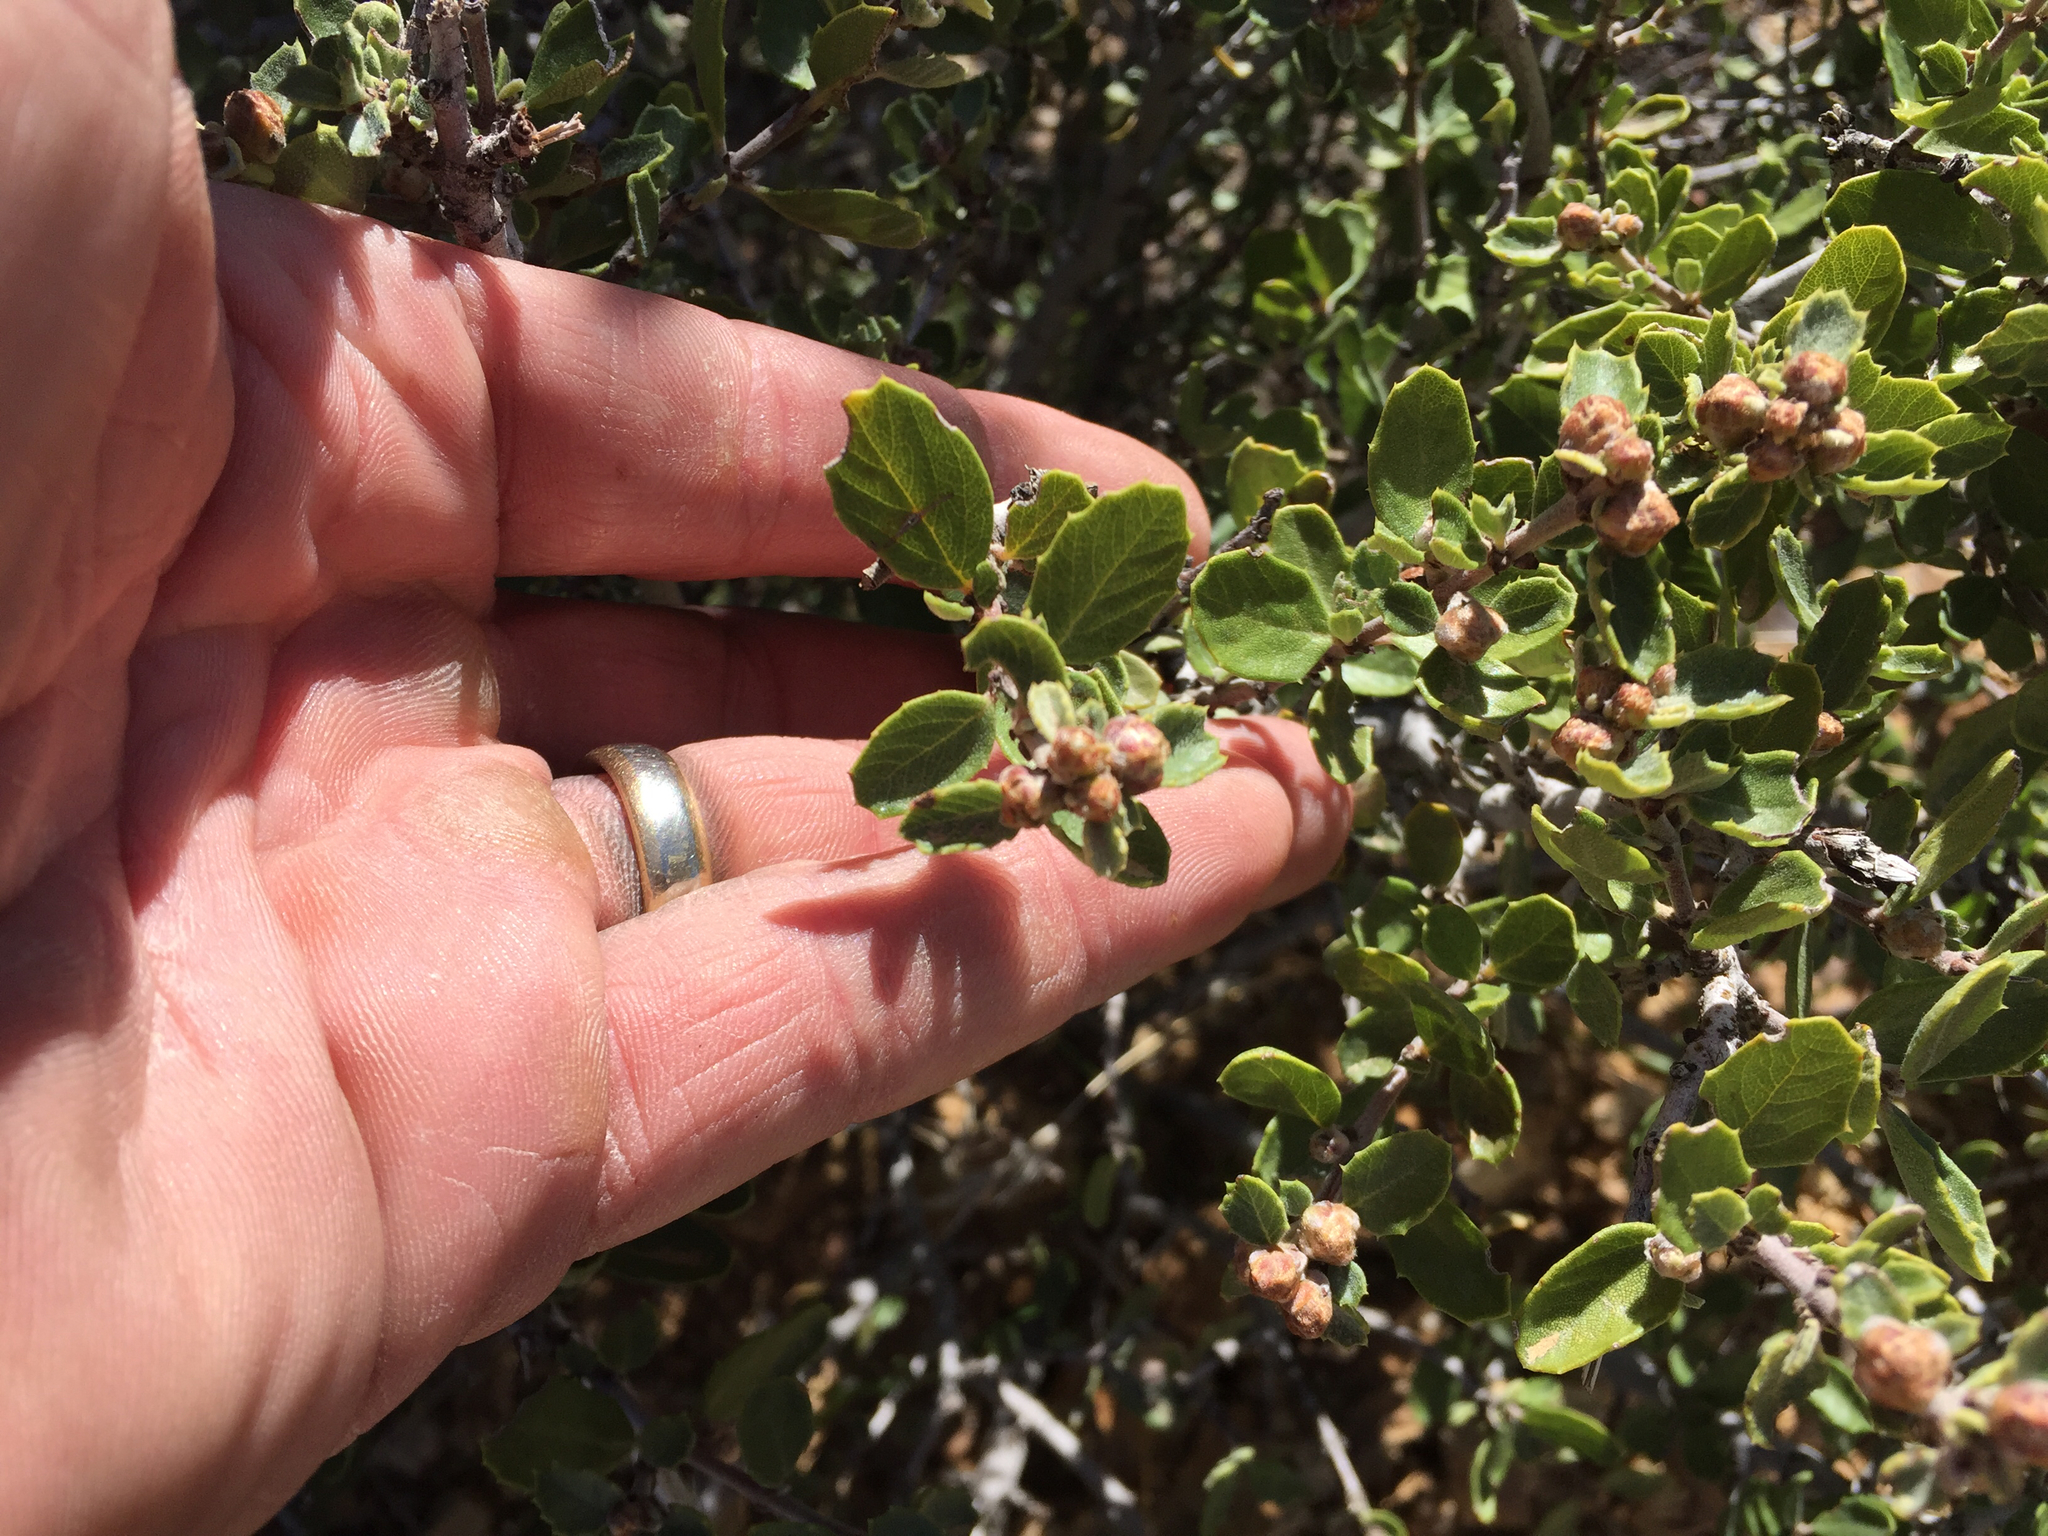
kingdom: Plantae
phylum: Tracheophyta
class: Magnoliopsida
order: Rosales
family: Rhamnaceae
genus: Ceanothus
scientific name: Ceanothus perplexans
